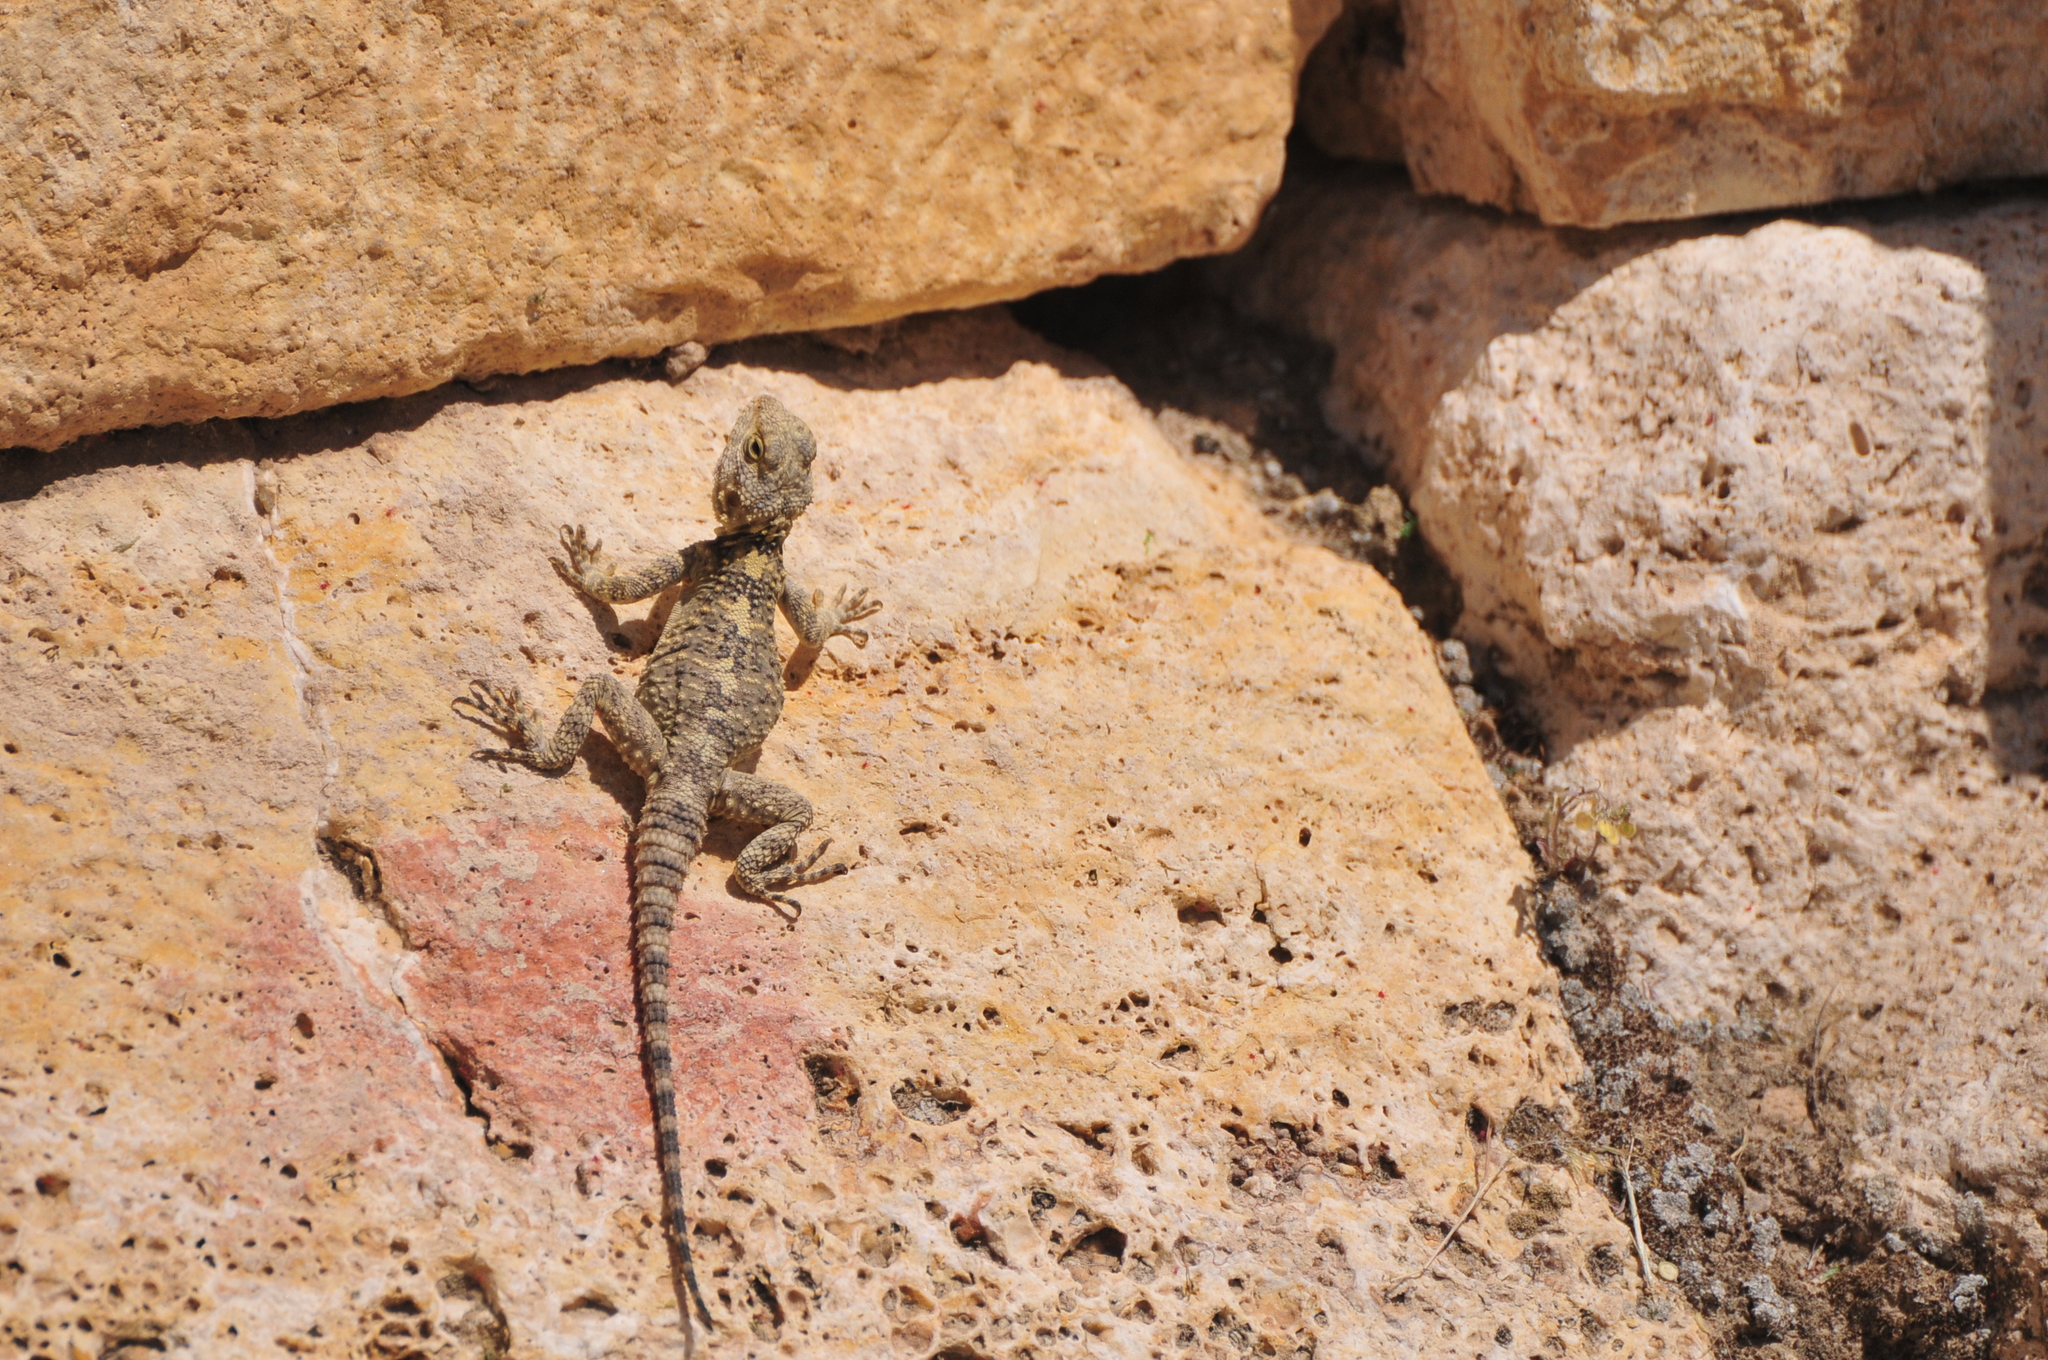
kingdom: Animalia
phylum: Chordata
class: Squamata
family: Agamidae
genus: Stellagama
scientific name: Stellagama stellio
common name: Starred agama
